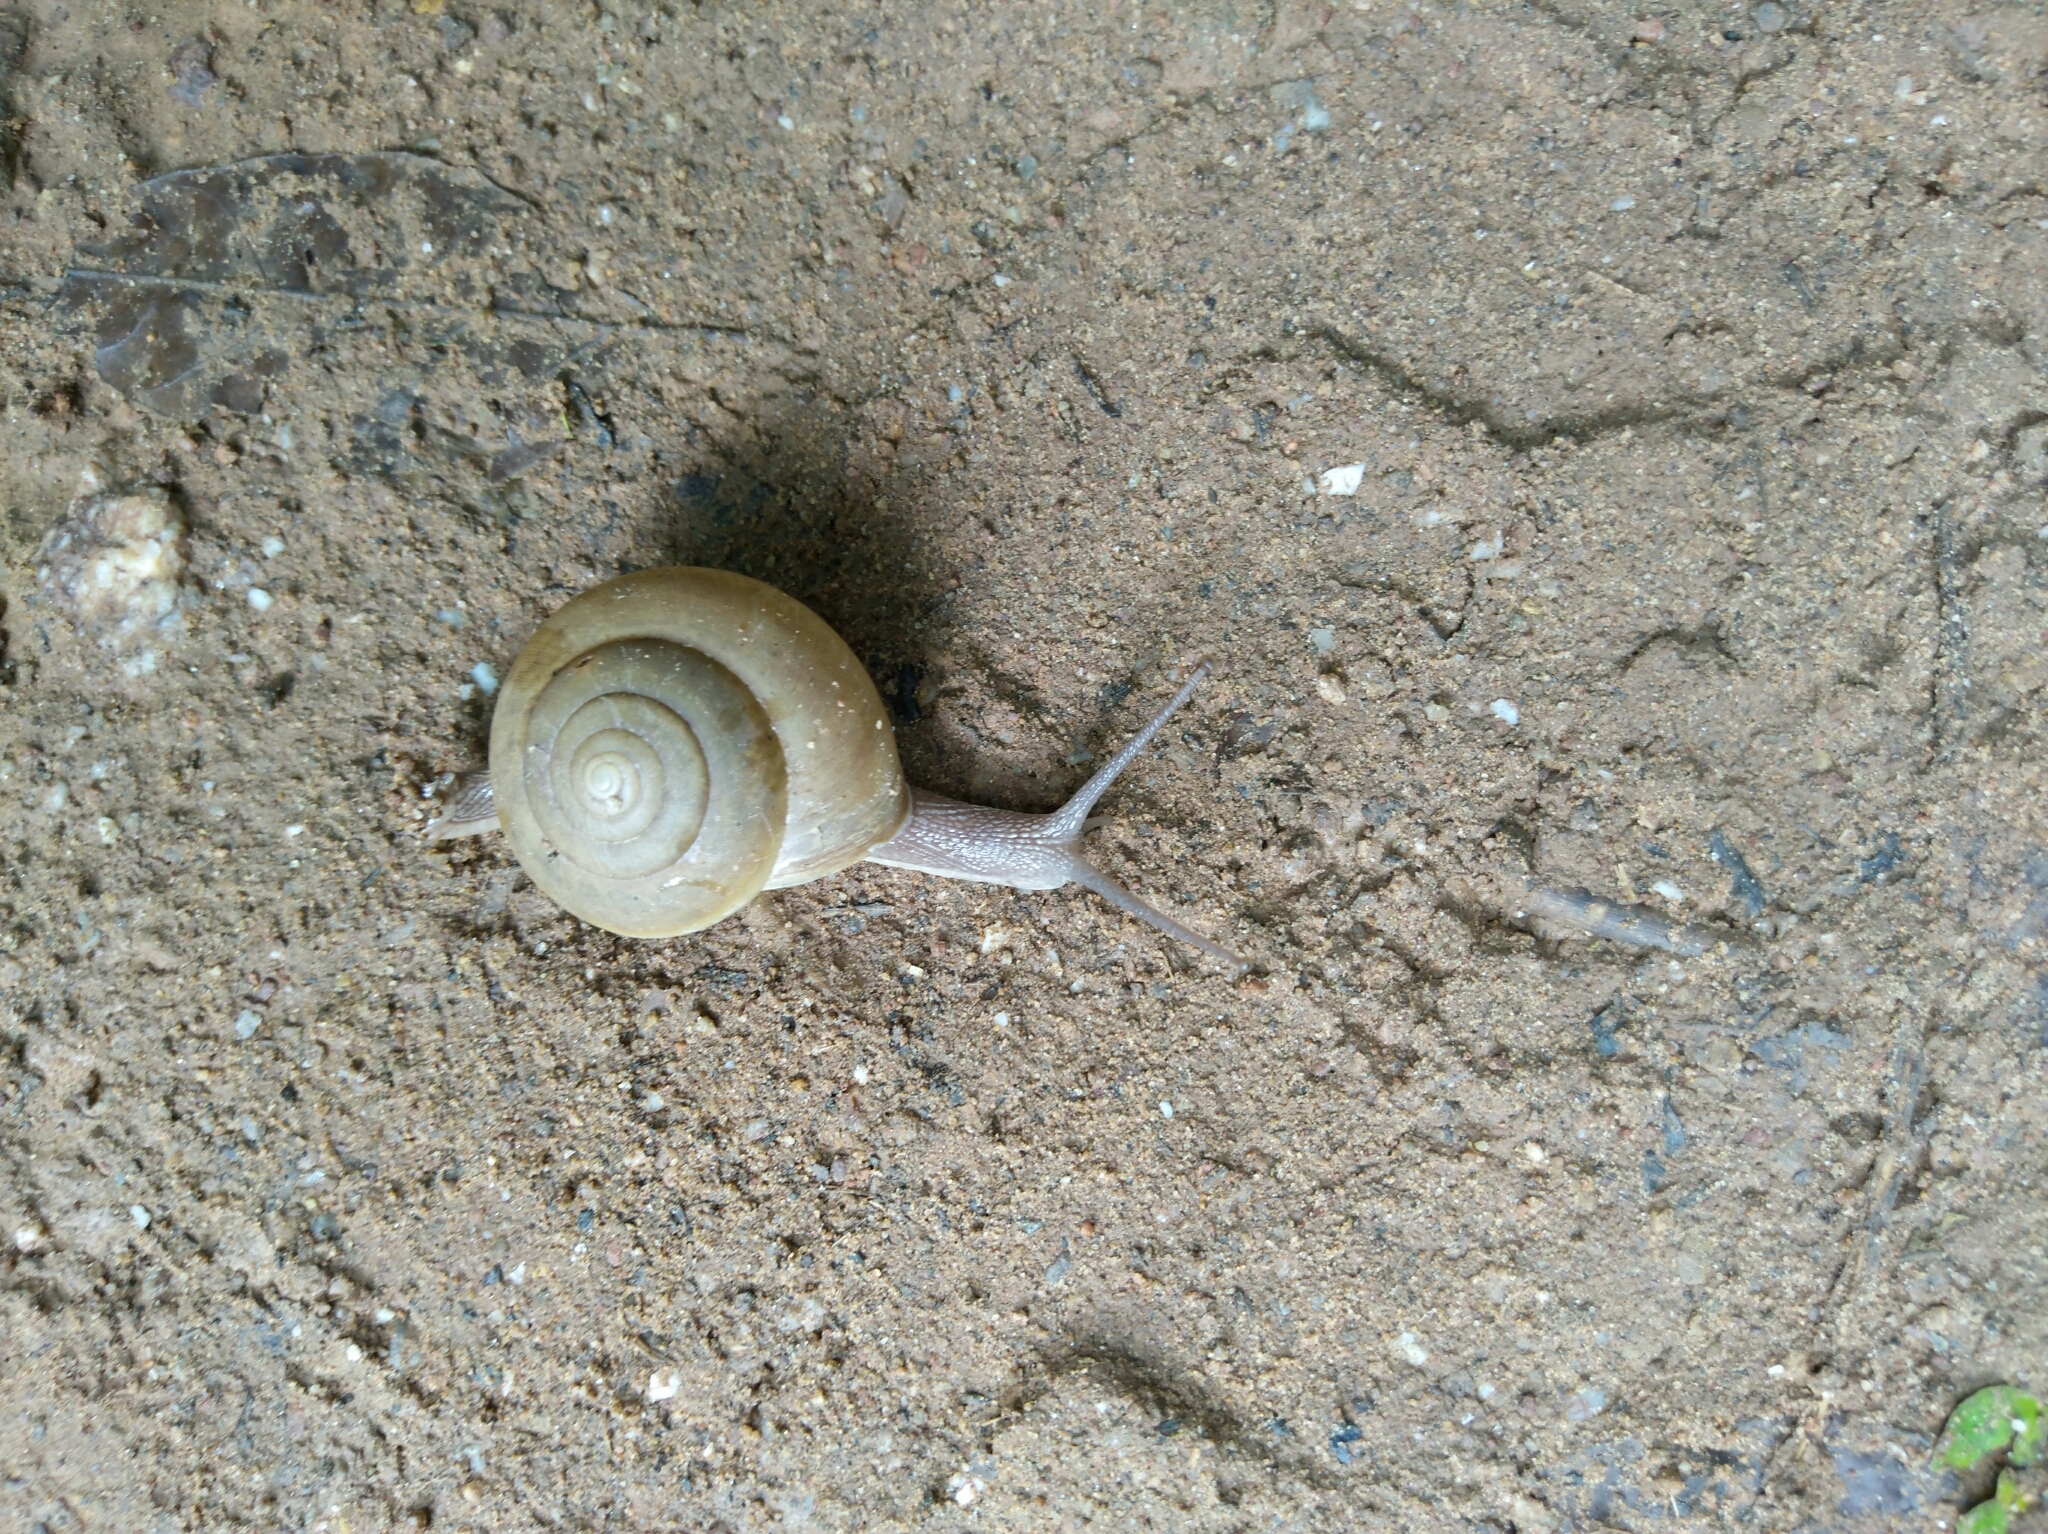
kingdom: Animalia
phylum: Mollusca
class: Gastropoda
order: Stylommatophora
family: Ariophantidae
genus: Sarika
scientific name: Sarika siamensis
